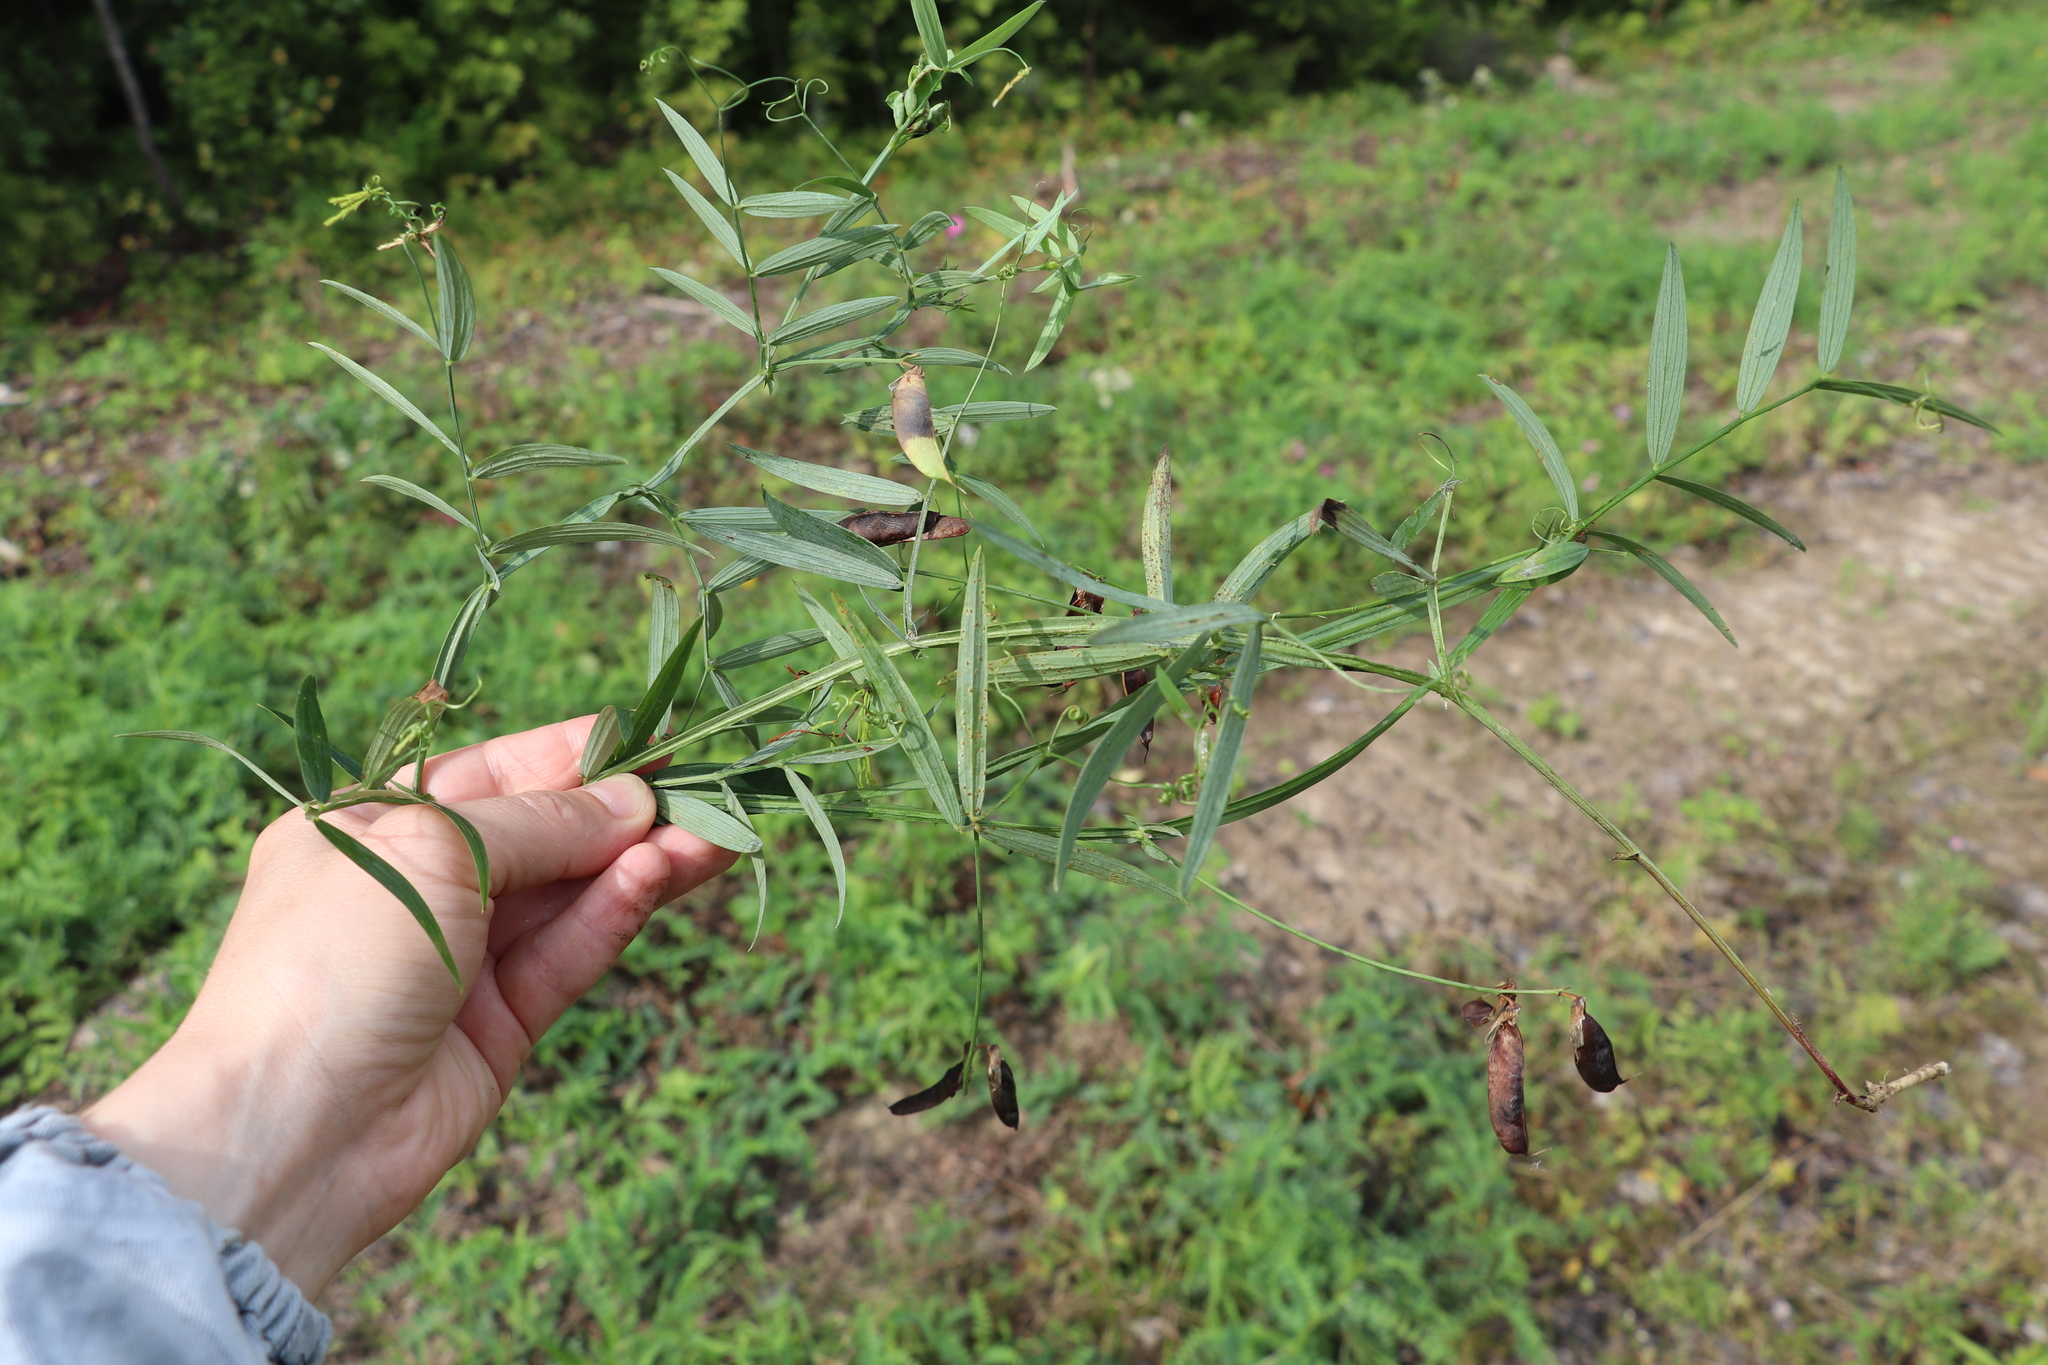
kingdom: Plantae
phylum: Tracheophyta
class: Magnoliopsida
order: Fabales
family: Fabaceae
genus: Lathyrus
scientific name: Lathyrus palustris
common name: Marsh pea
